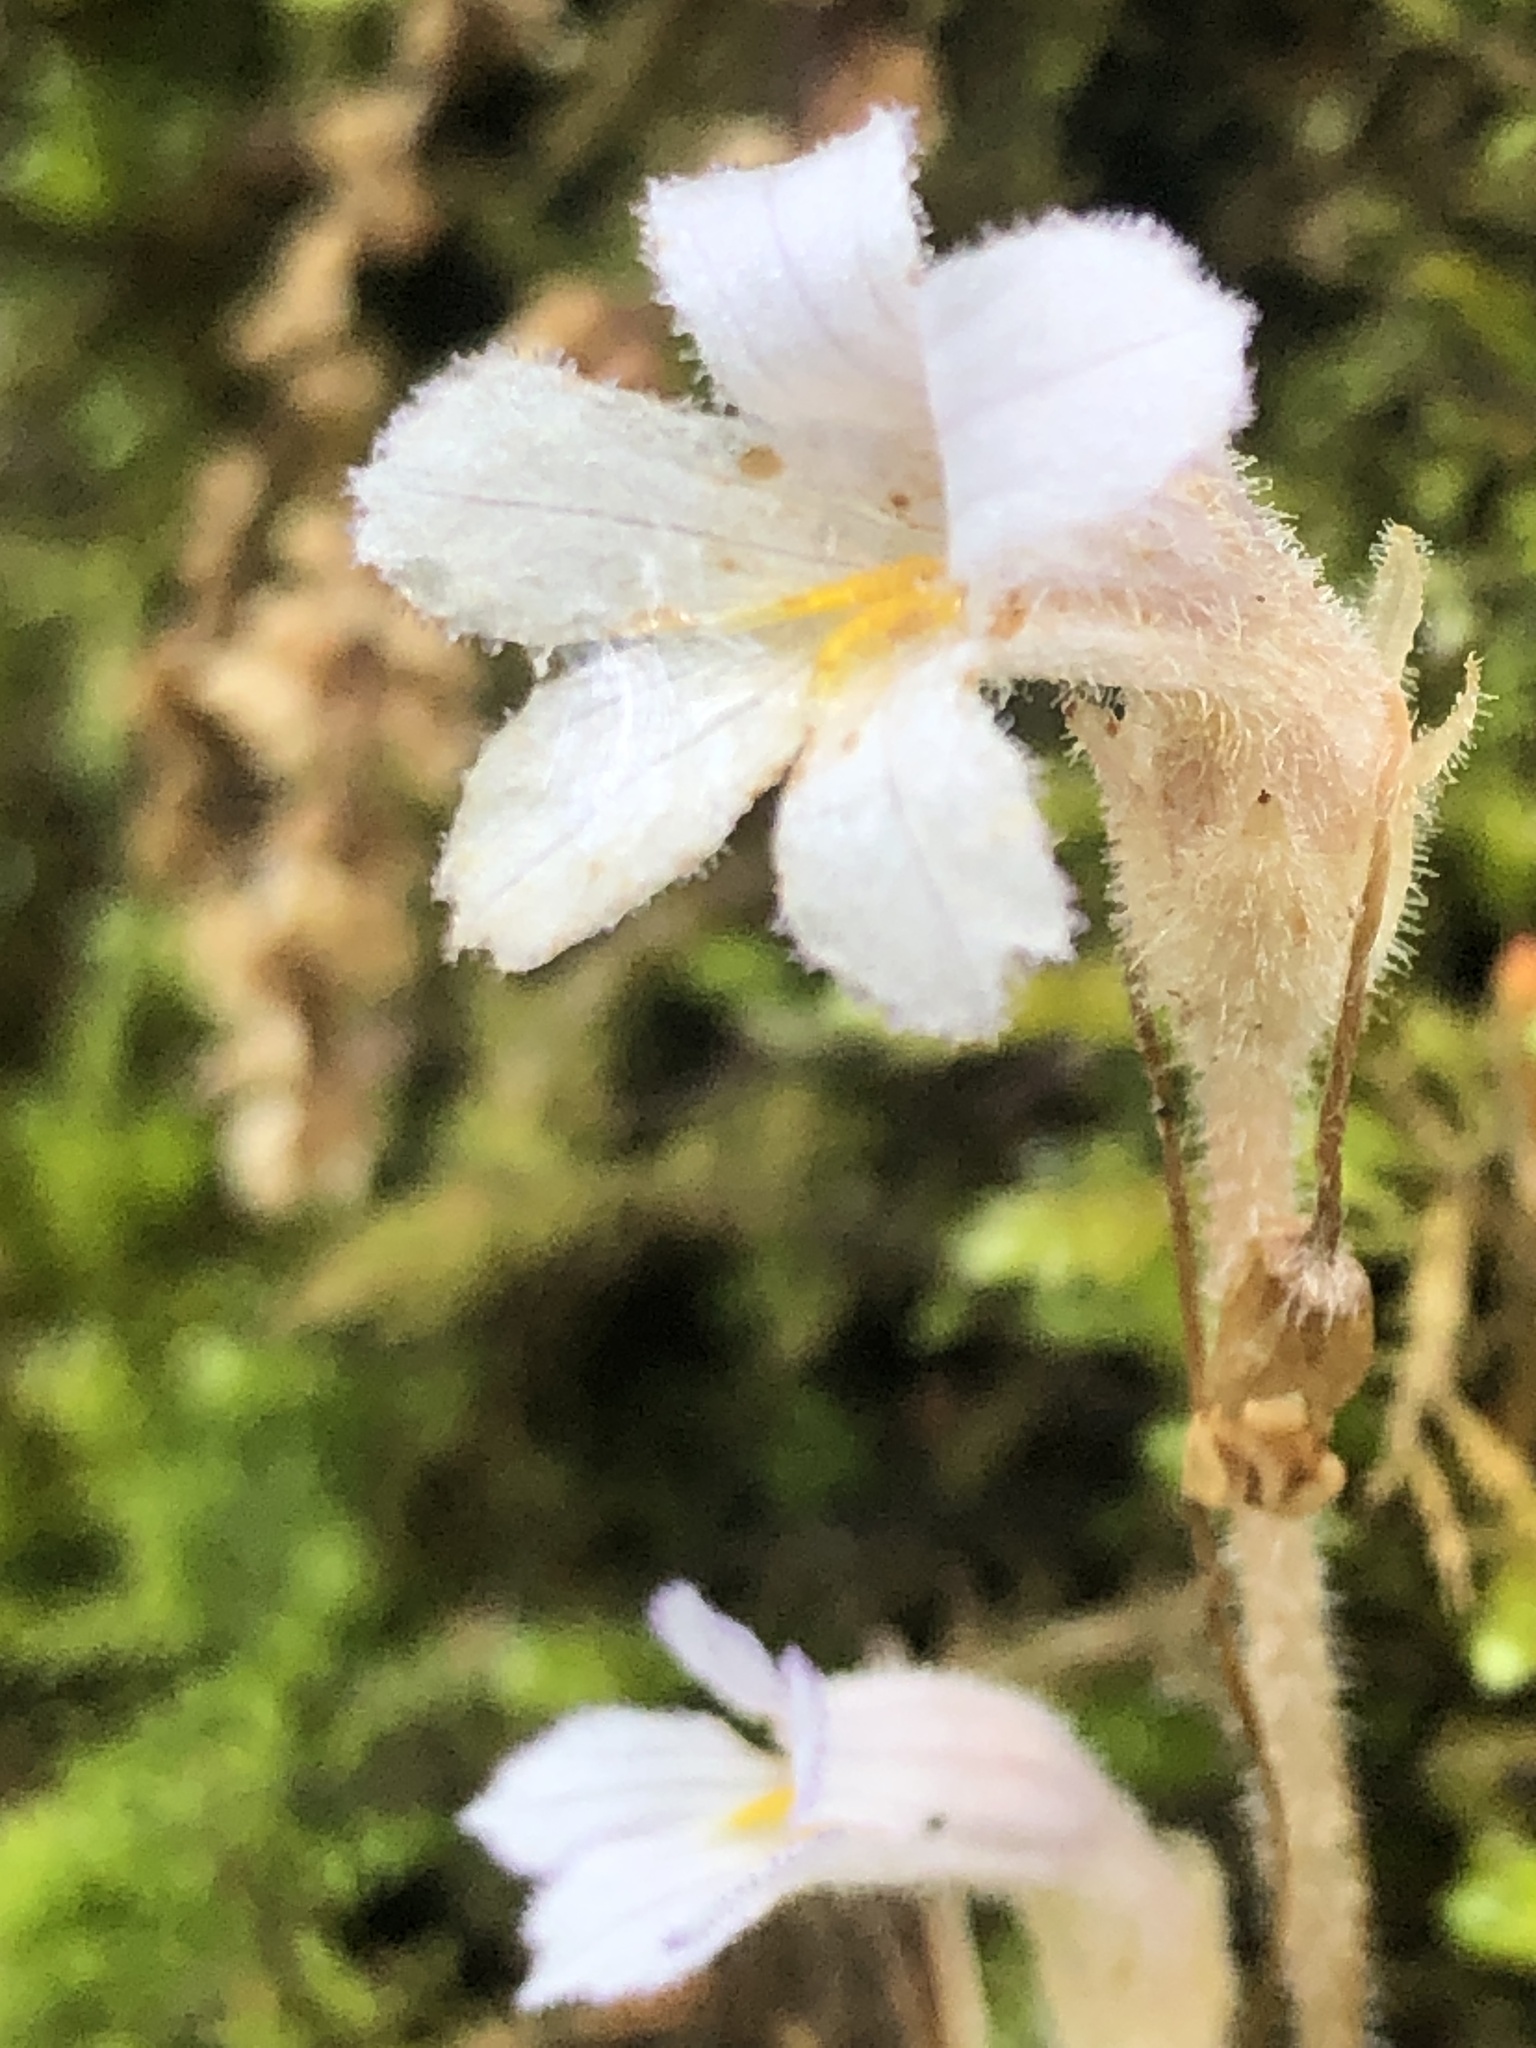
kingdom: Plantae
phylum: Tracheophyta
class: Magnoliopsida
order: Lamiales
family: Orobanchaceae
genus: Aphyllon
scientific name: Aphyllon uniflorum
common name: One-flowered broomrape
